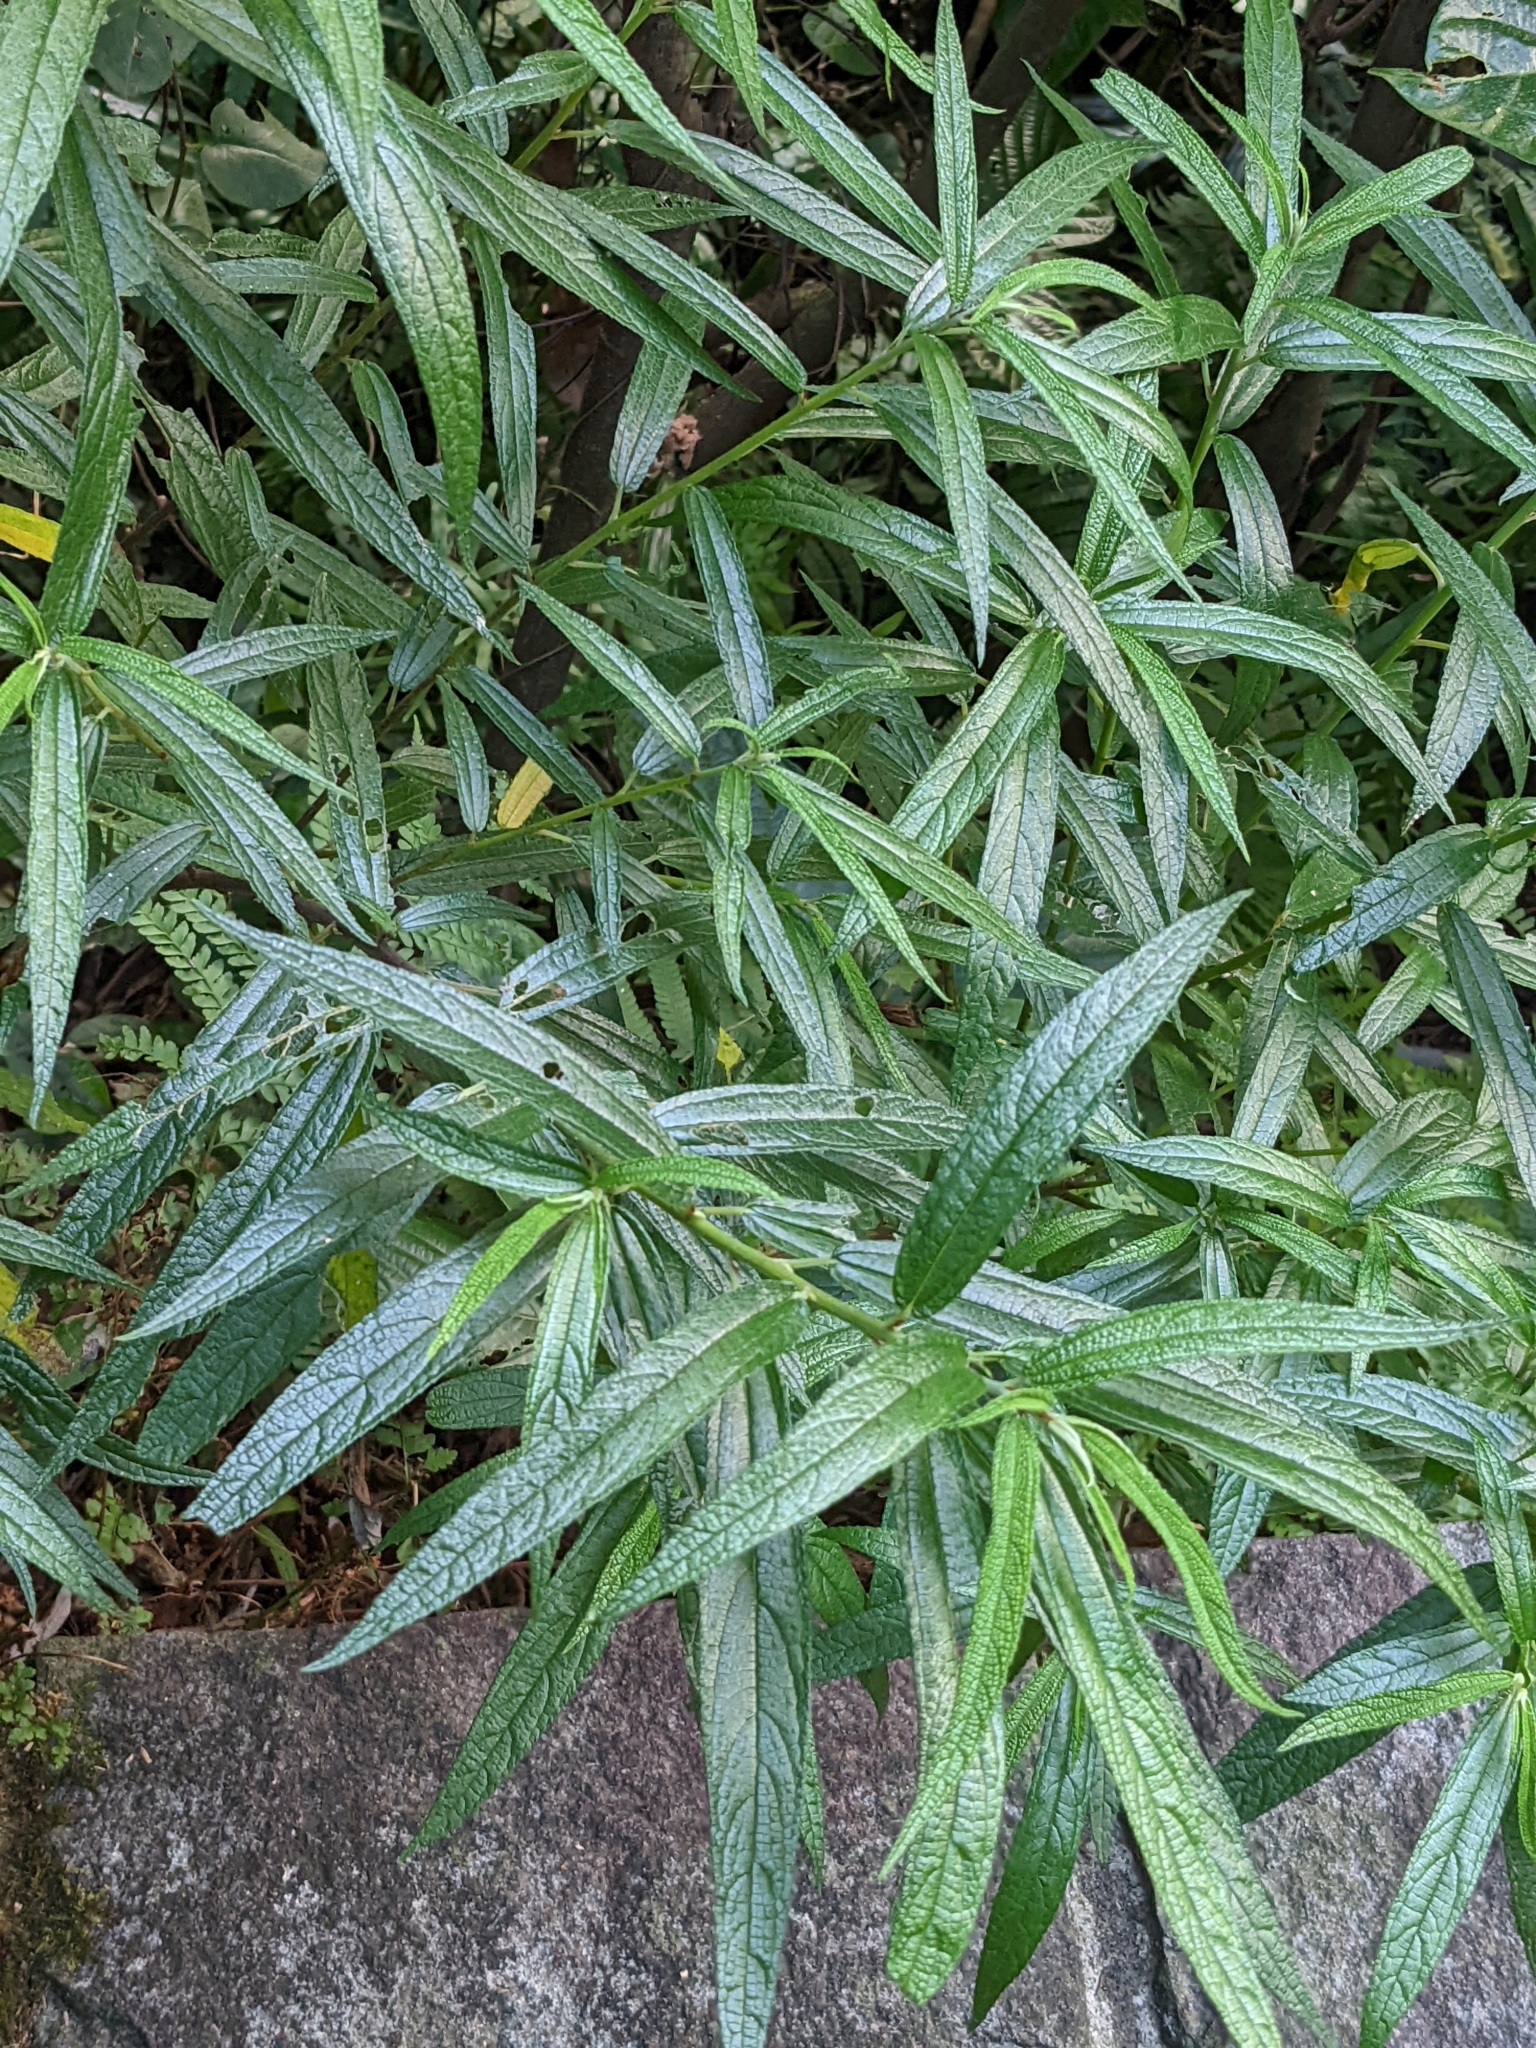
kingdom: Plantae
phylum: Tracheophyta
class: Magnoliopsida
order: Rosales
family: Urticaceae
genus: Debregeasia
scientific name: Debregeasia orientalis
